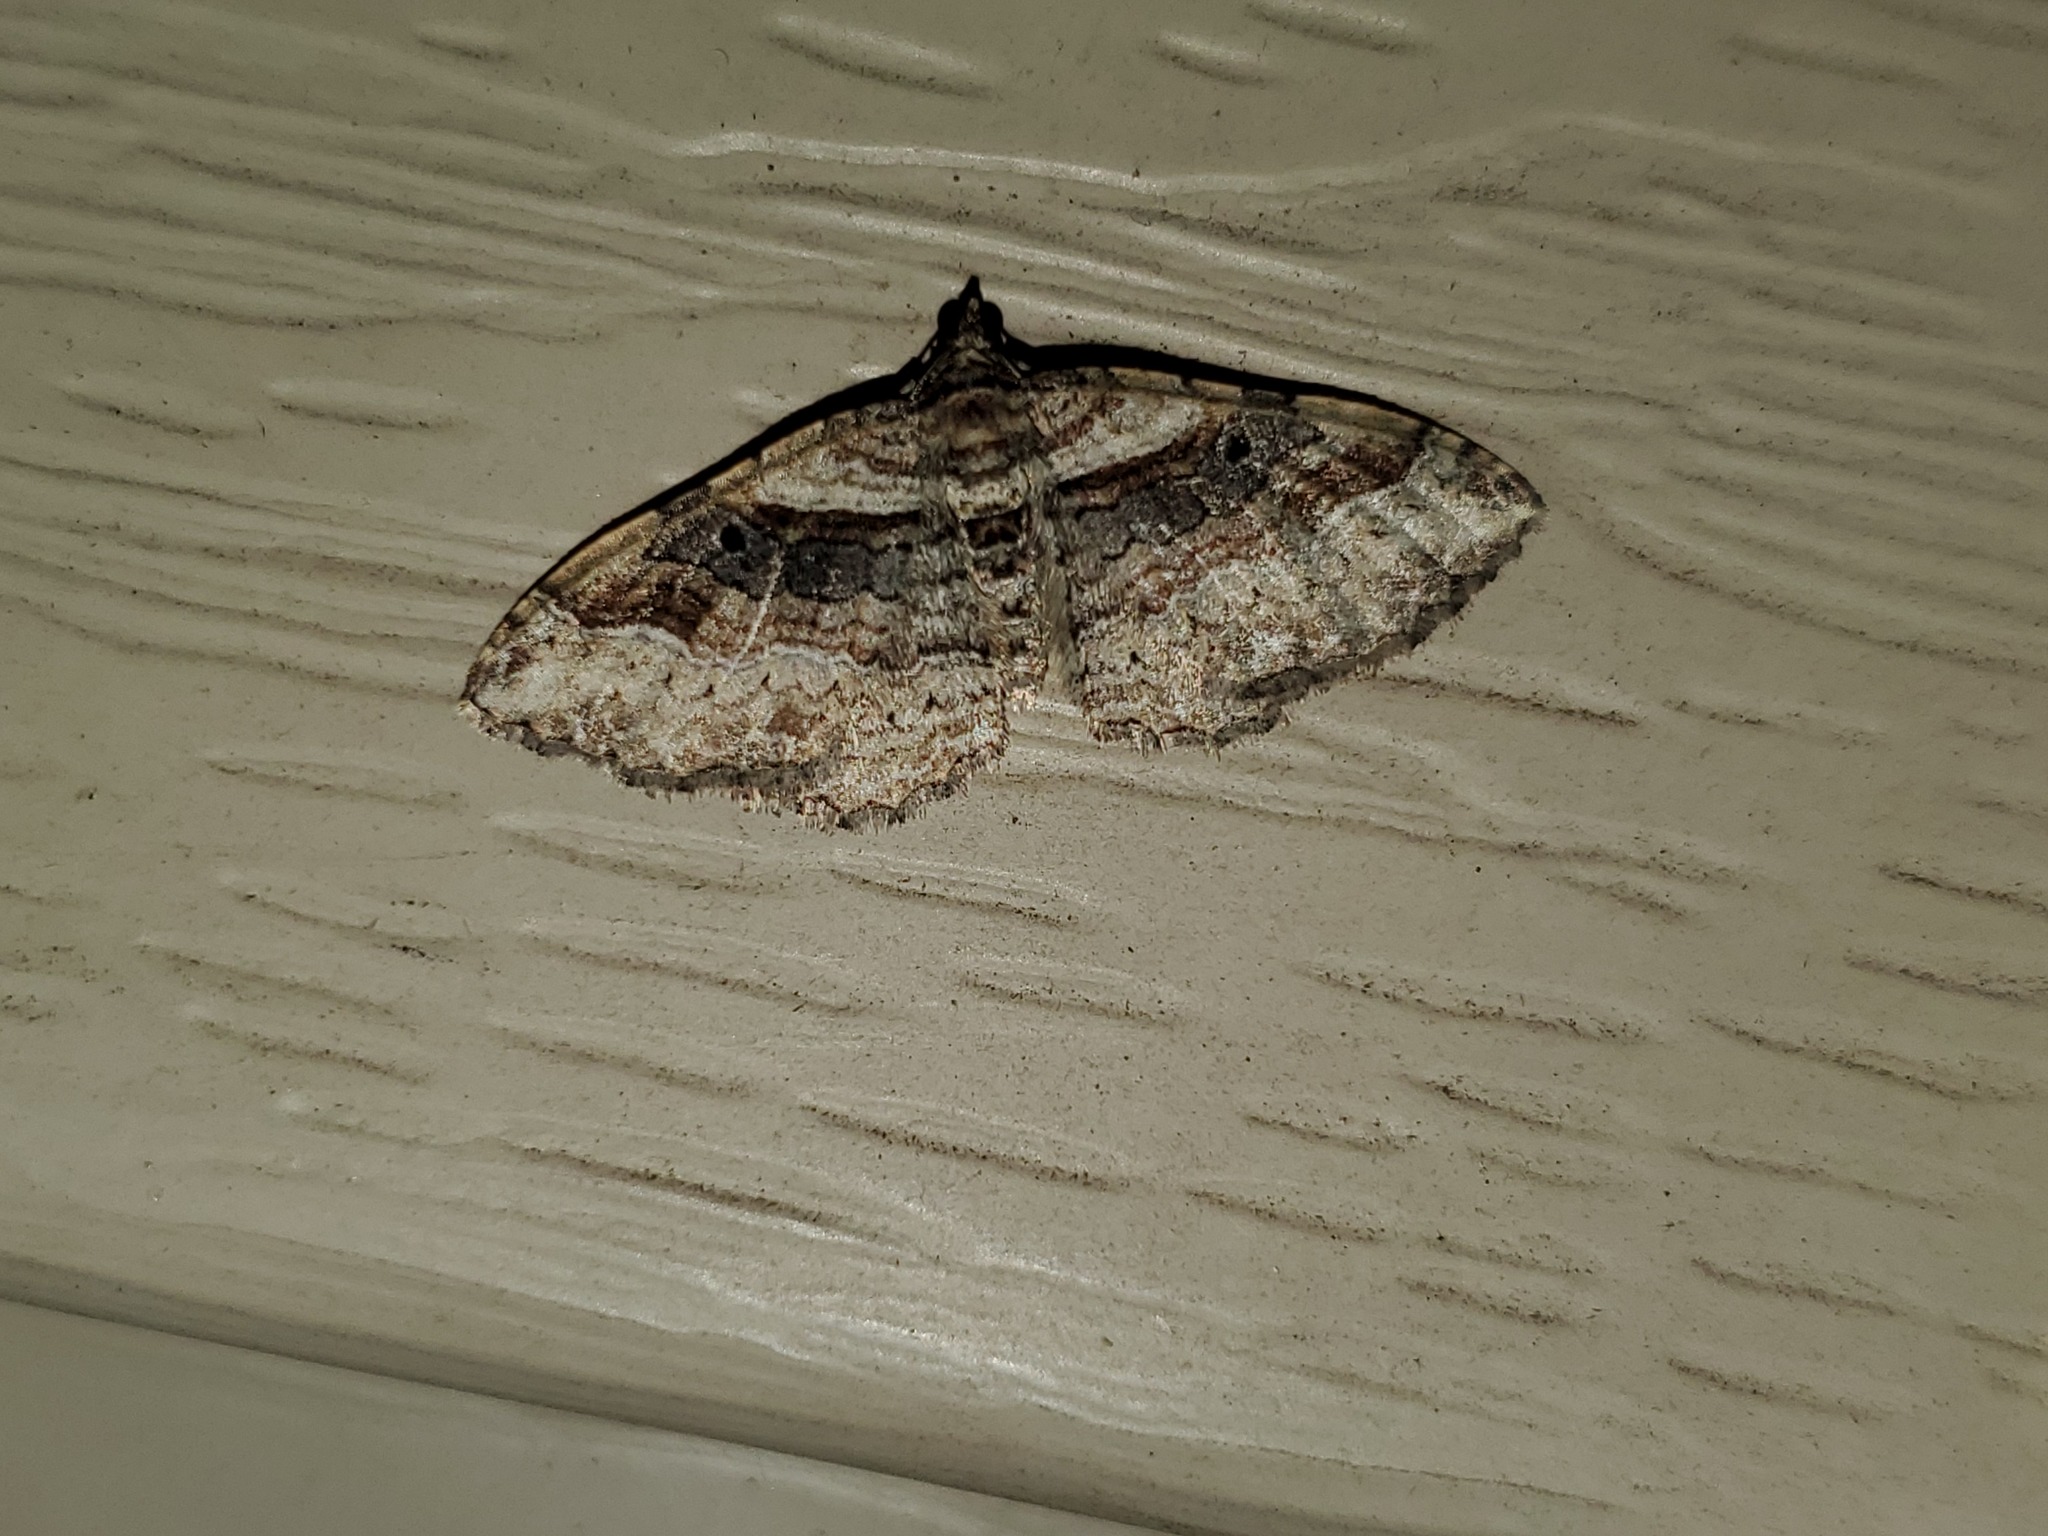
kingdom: Animalia
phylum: Arthropoda
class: Insecta
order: Lepidoptera
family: Geometridae
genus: Costaconvexa
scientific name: Costaconvexa centrostrigaria
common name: Bent-line carpet
